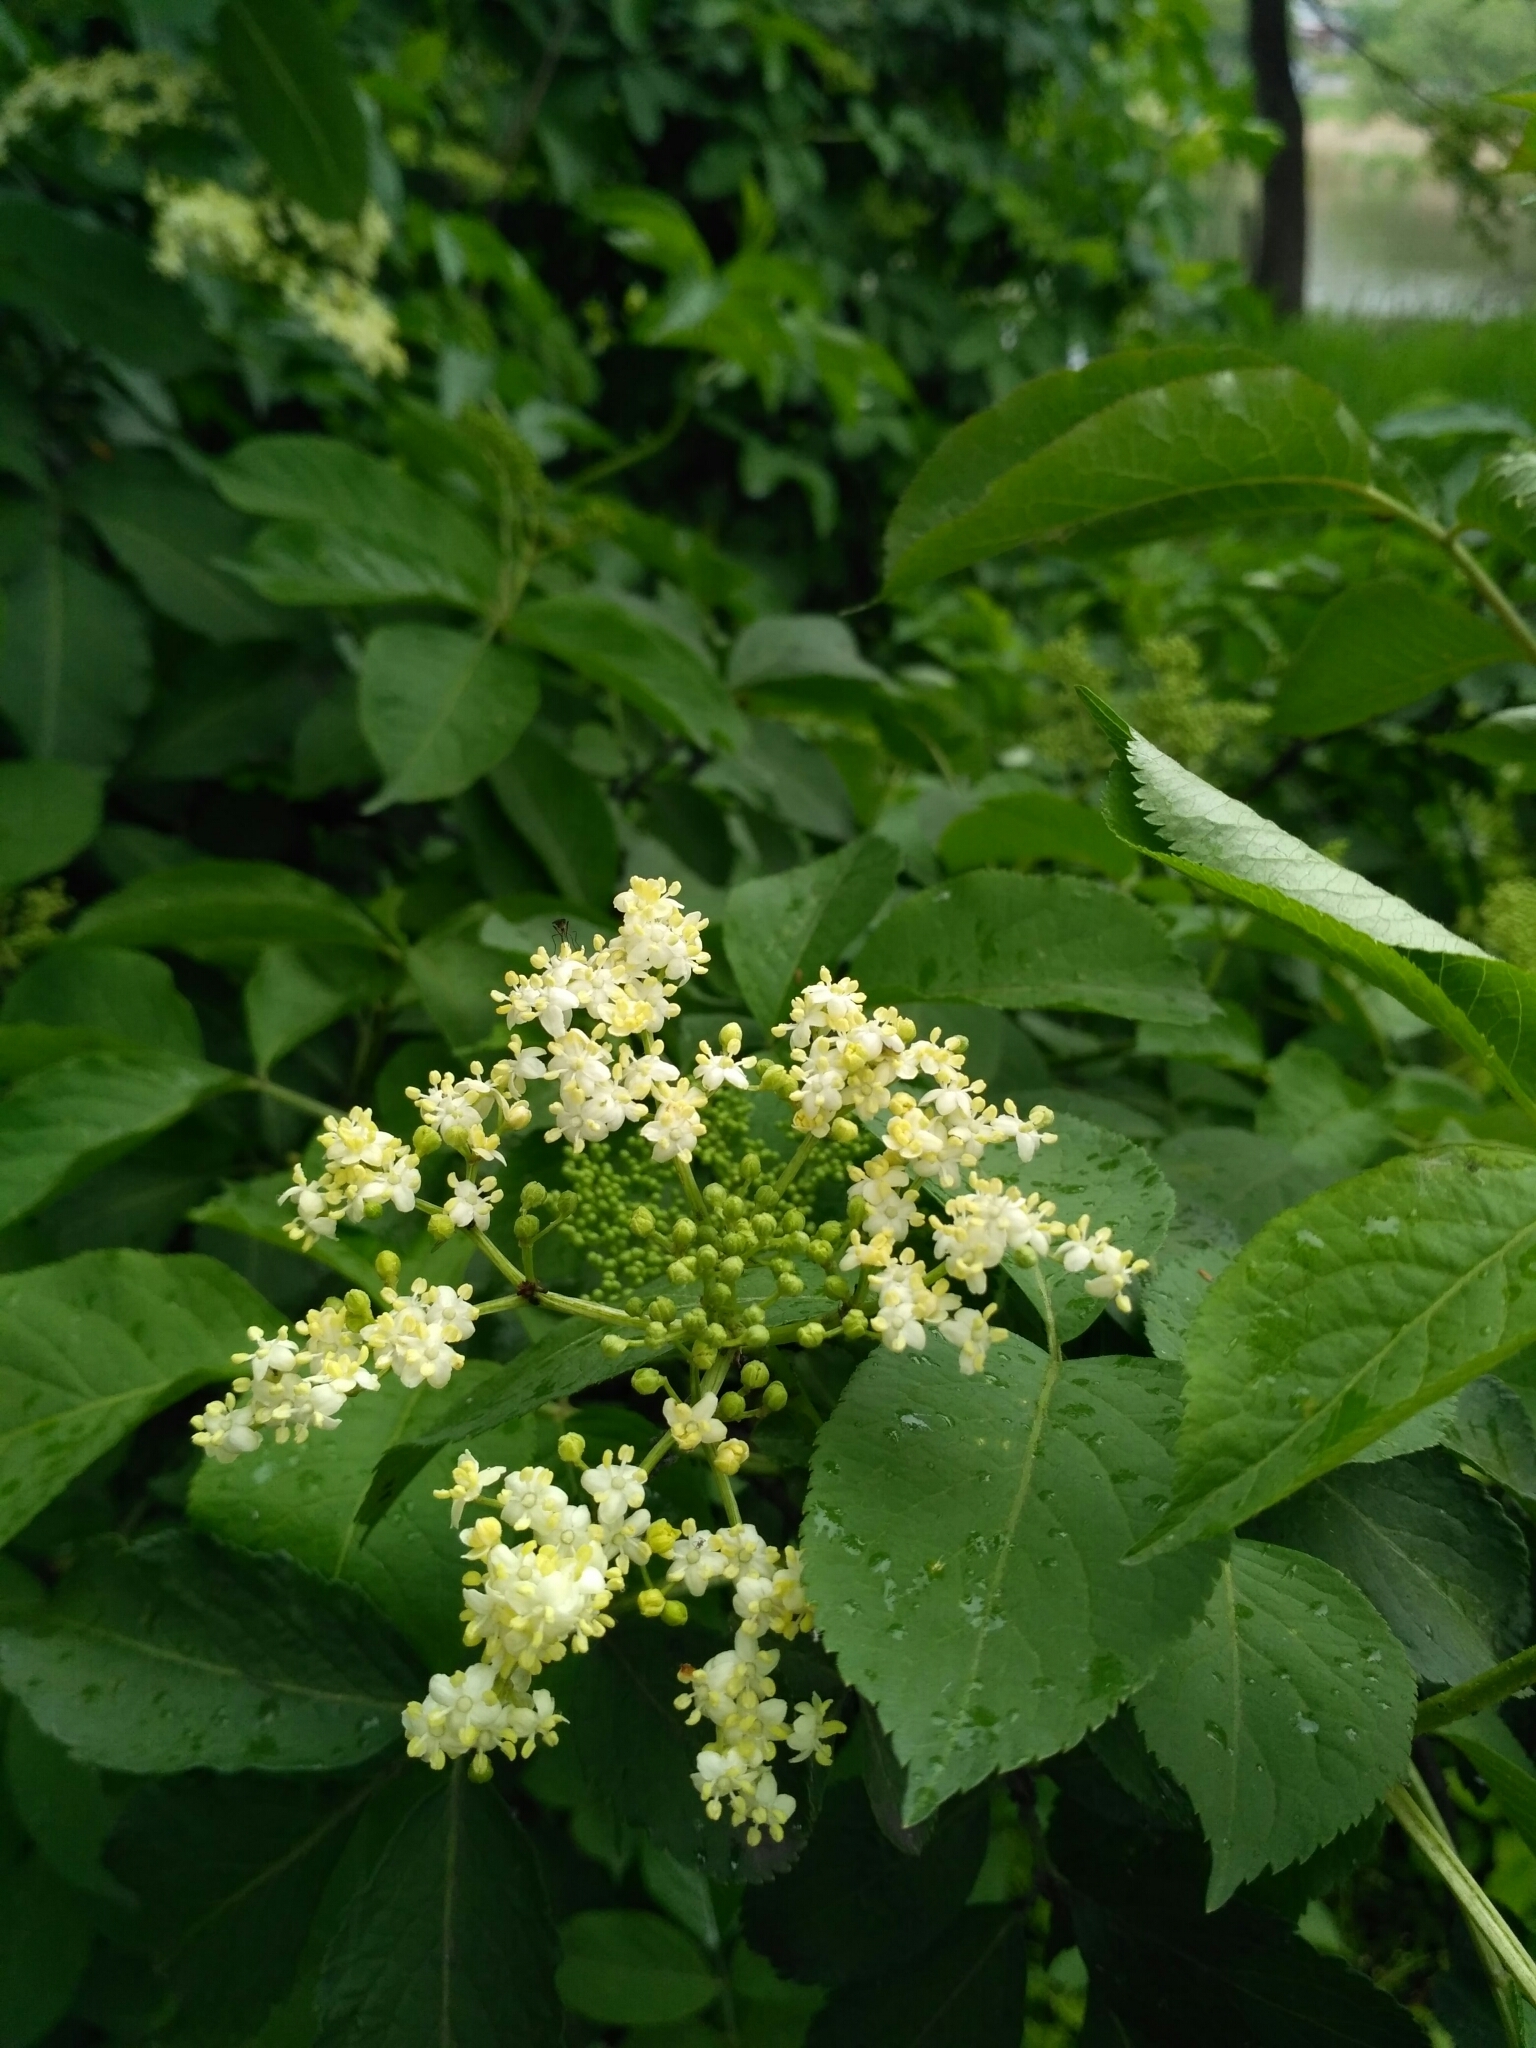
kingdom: Plantae
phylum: Tracheophyta
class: Magnoliopsida
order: Dipsacales
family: Viburnaceae
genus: Sambucus
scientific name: Sambucus nigra
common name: Elder
